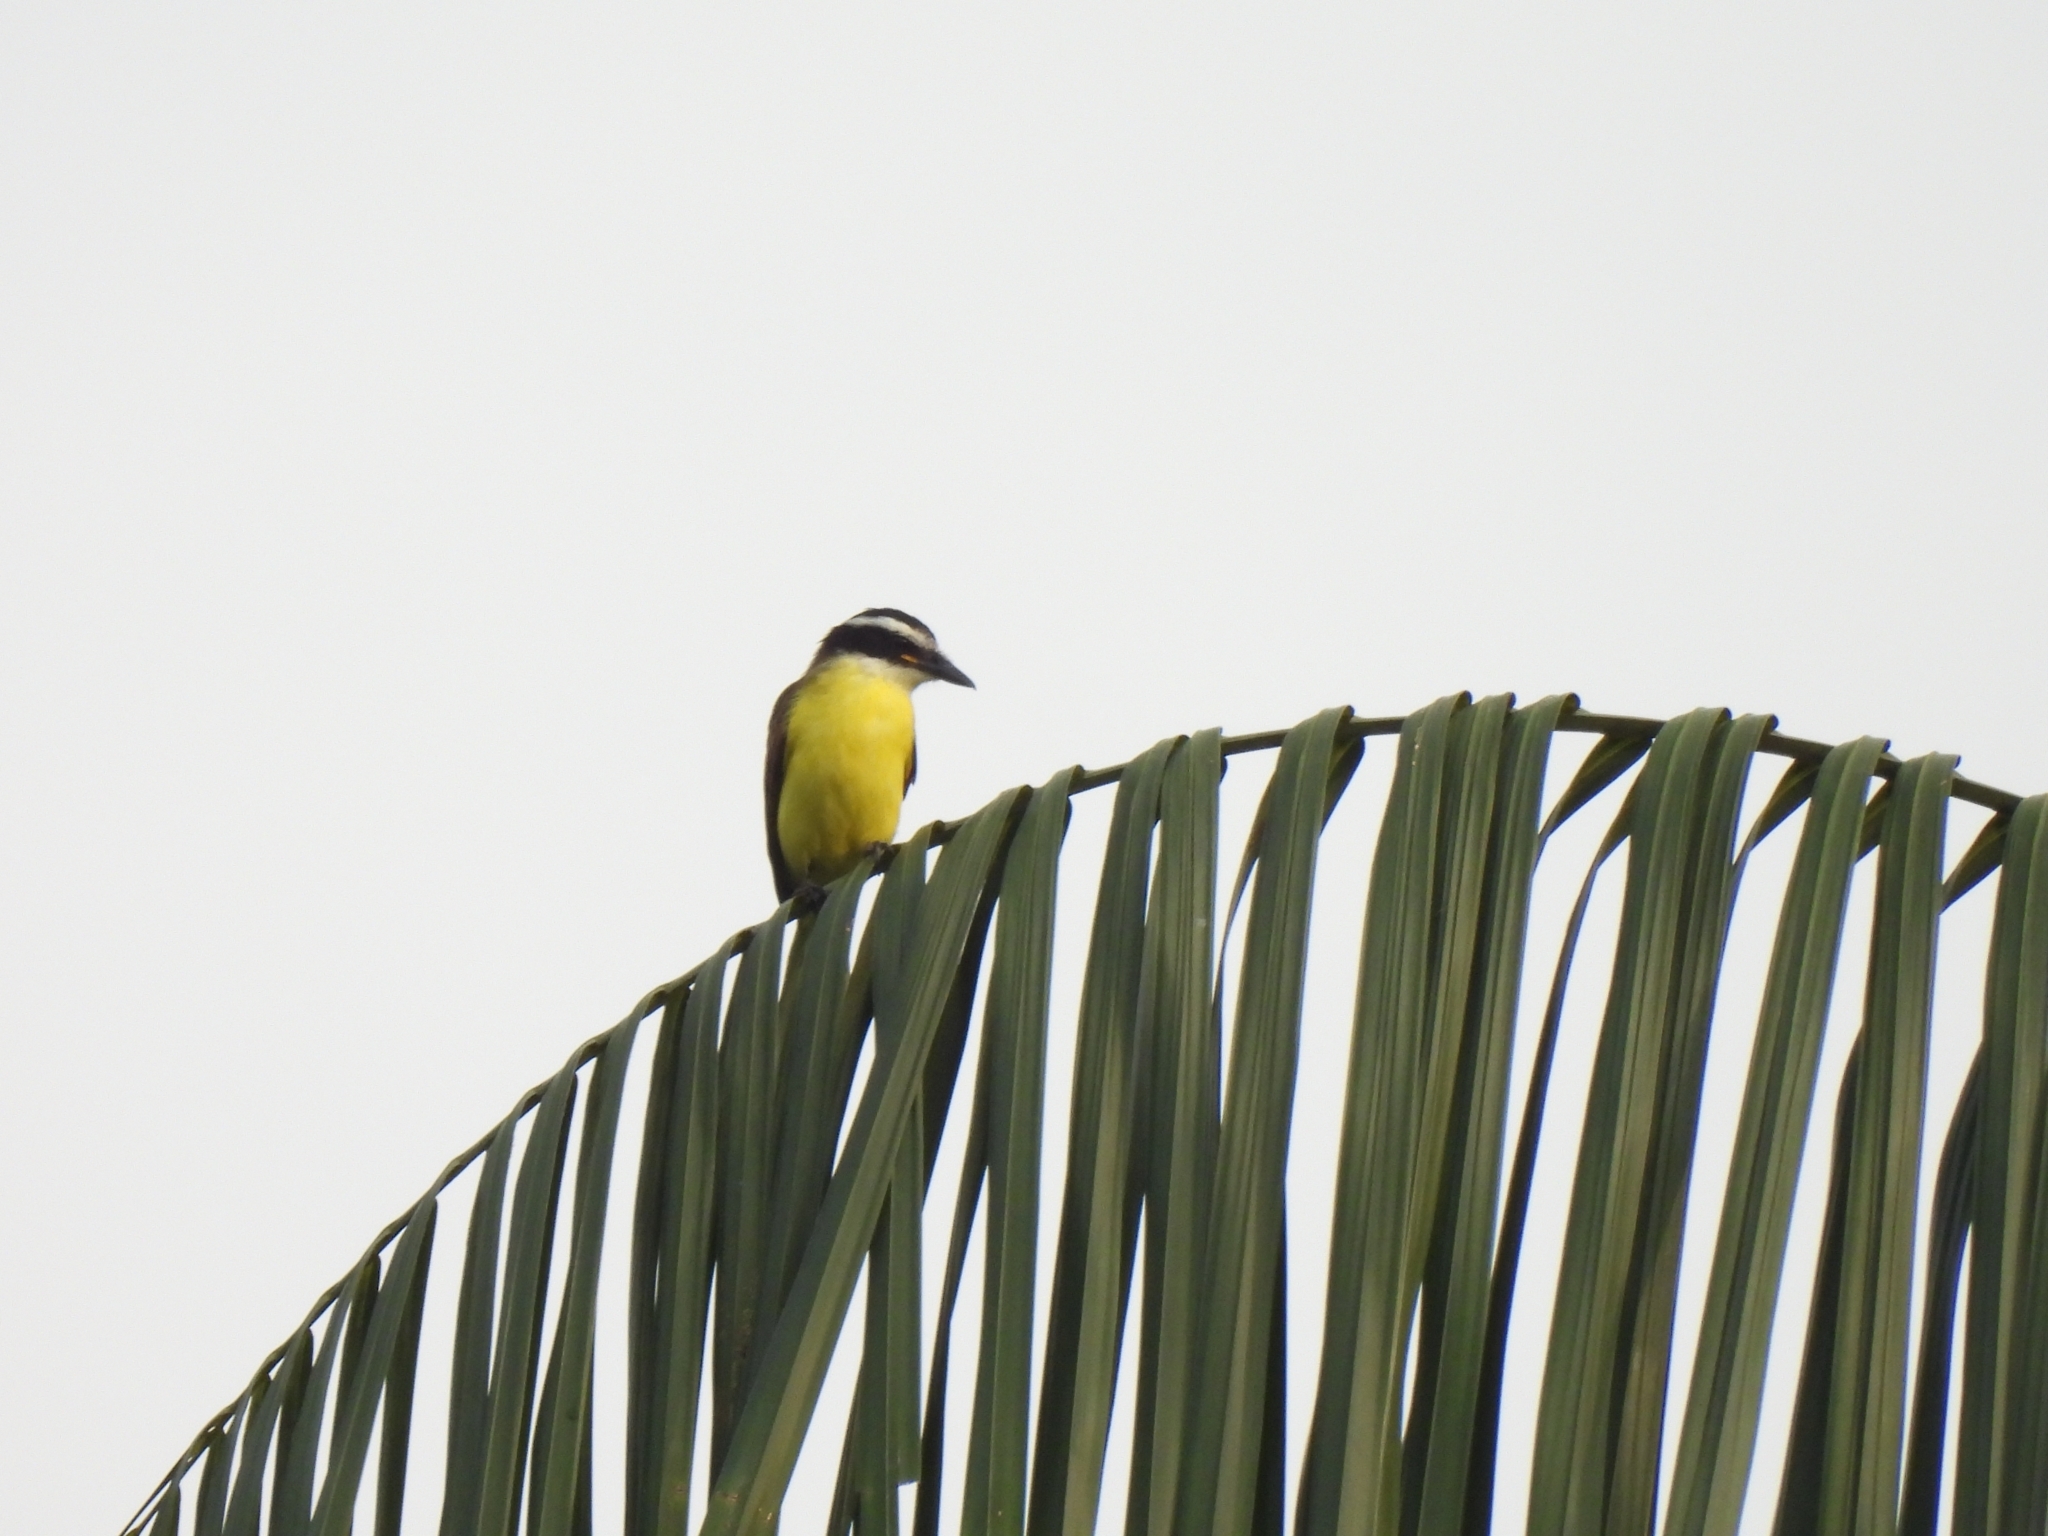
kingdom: Animalia
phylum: Chordata
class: Aves
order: Passeriformes
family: Tyrannidae
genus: Pitangus
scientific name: Pitangus sulphuratus
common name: Great kiskadee
